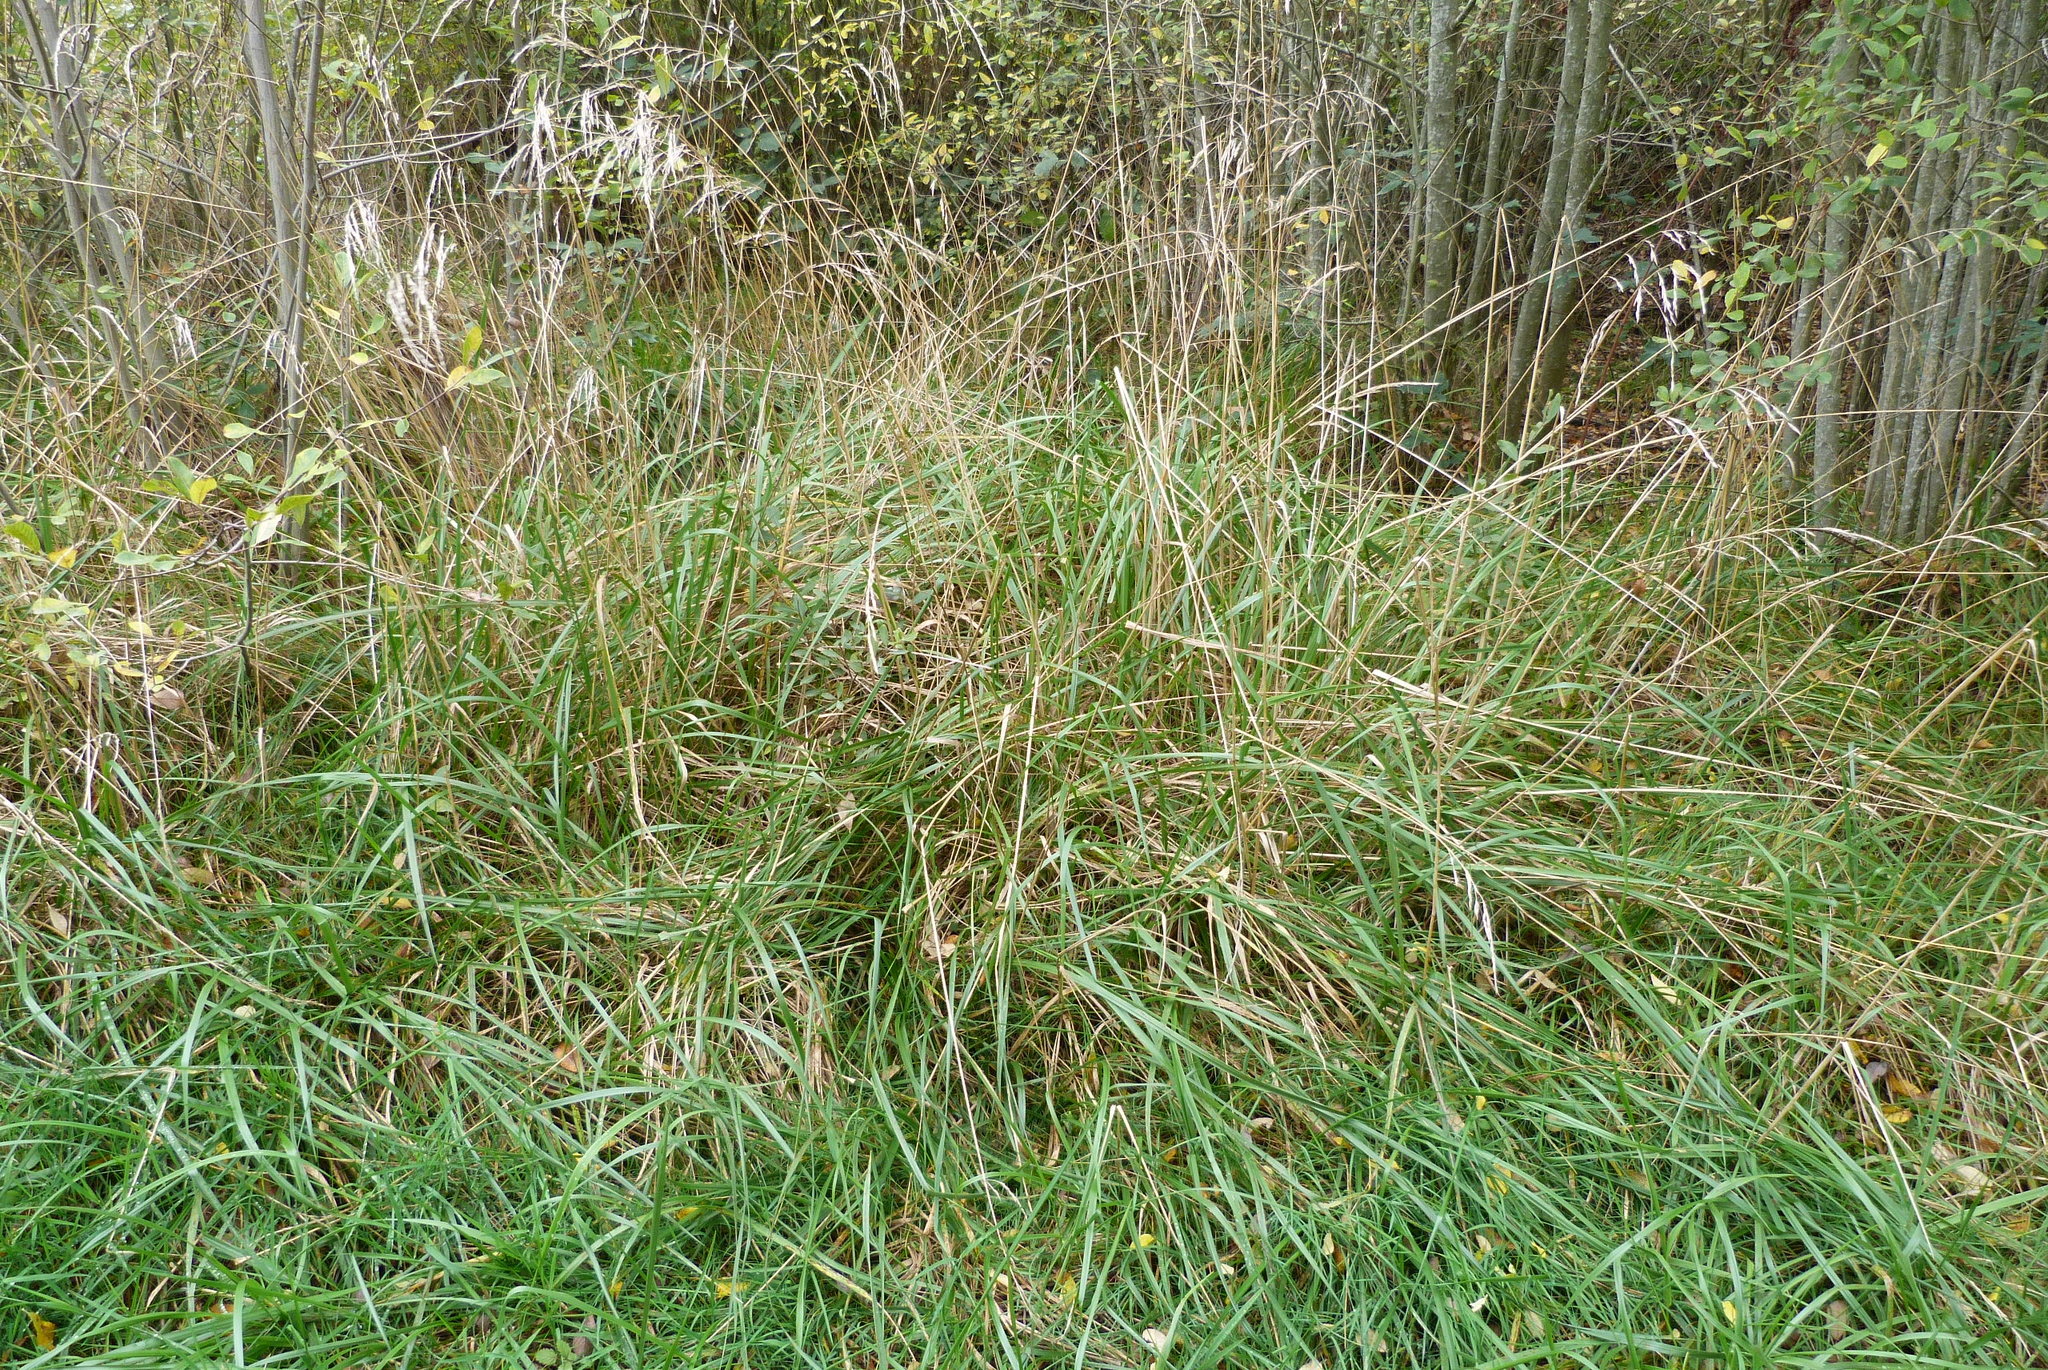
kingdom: Plantae
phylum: Tracheophyta
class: Liliopsida
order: Poales
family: Poaceae
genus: Lolium
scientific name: Lolium arundinaceum
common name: Reed fescue
